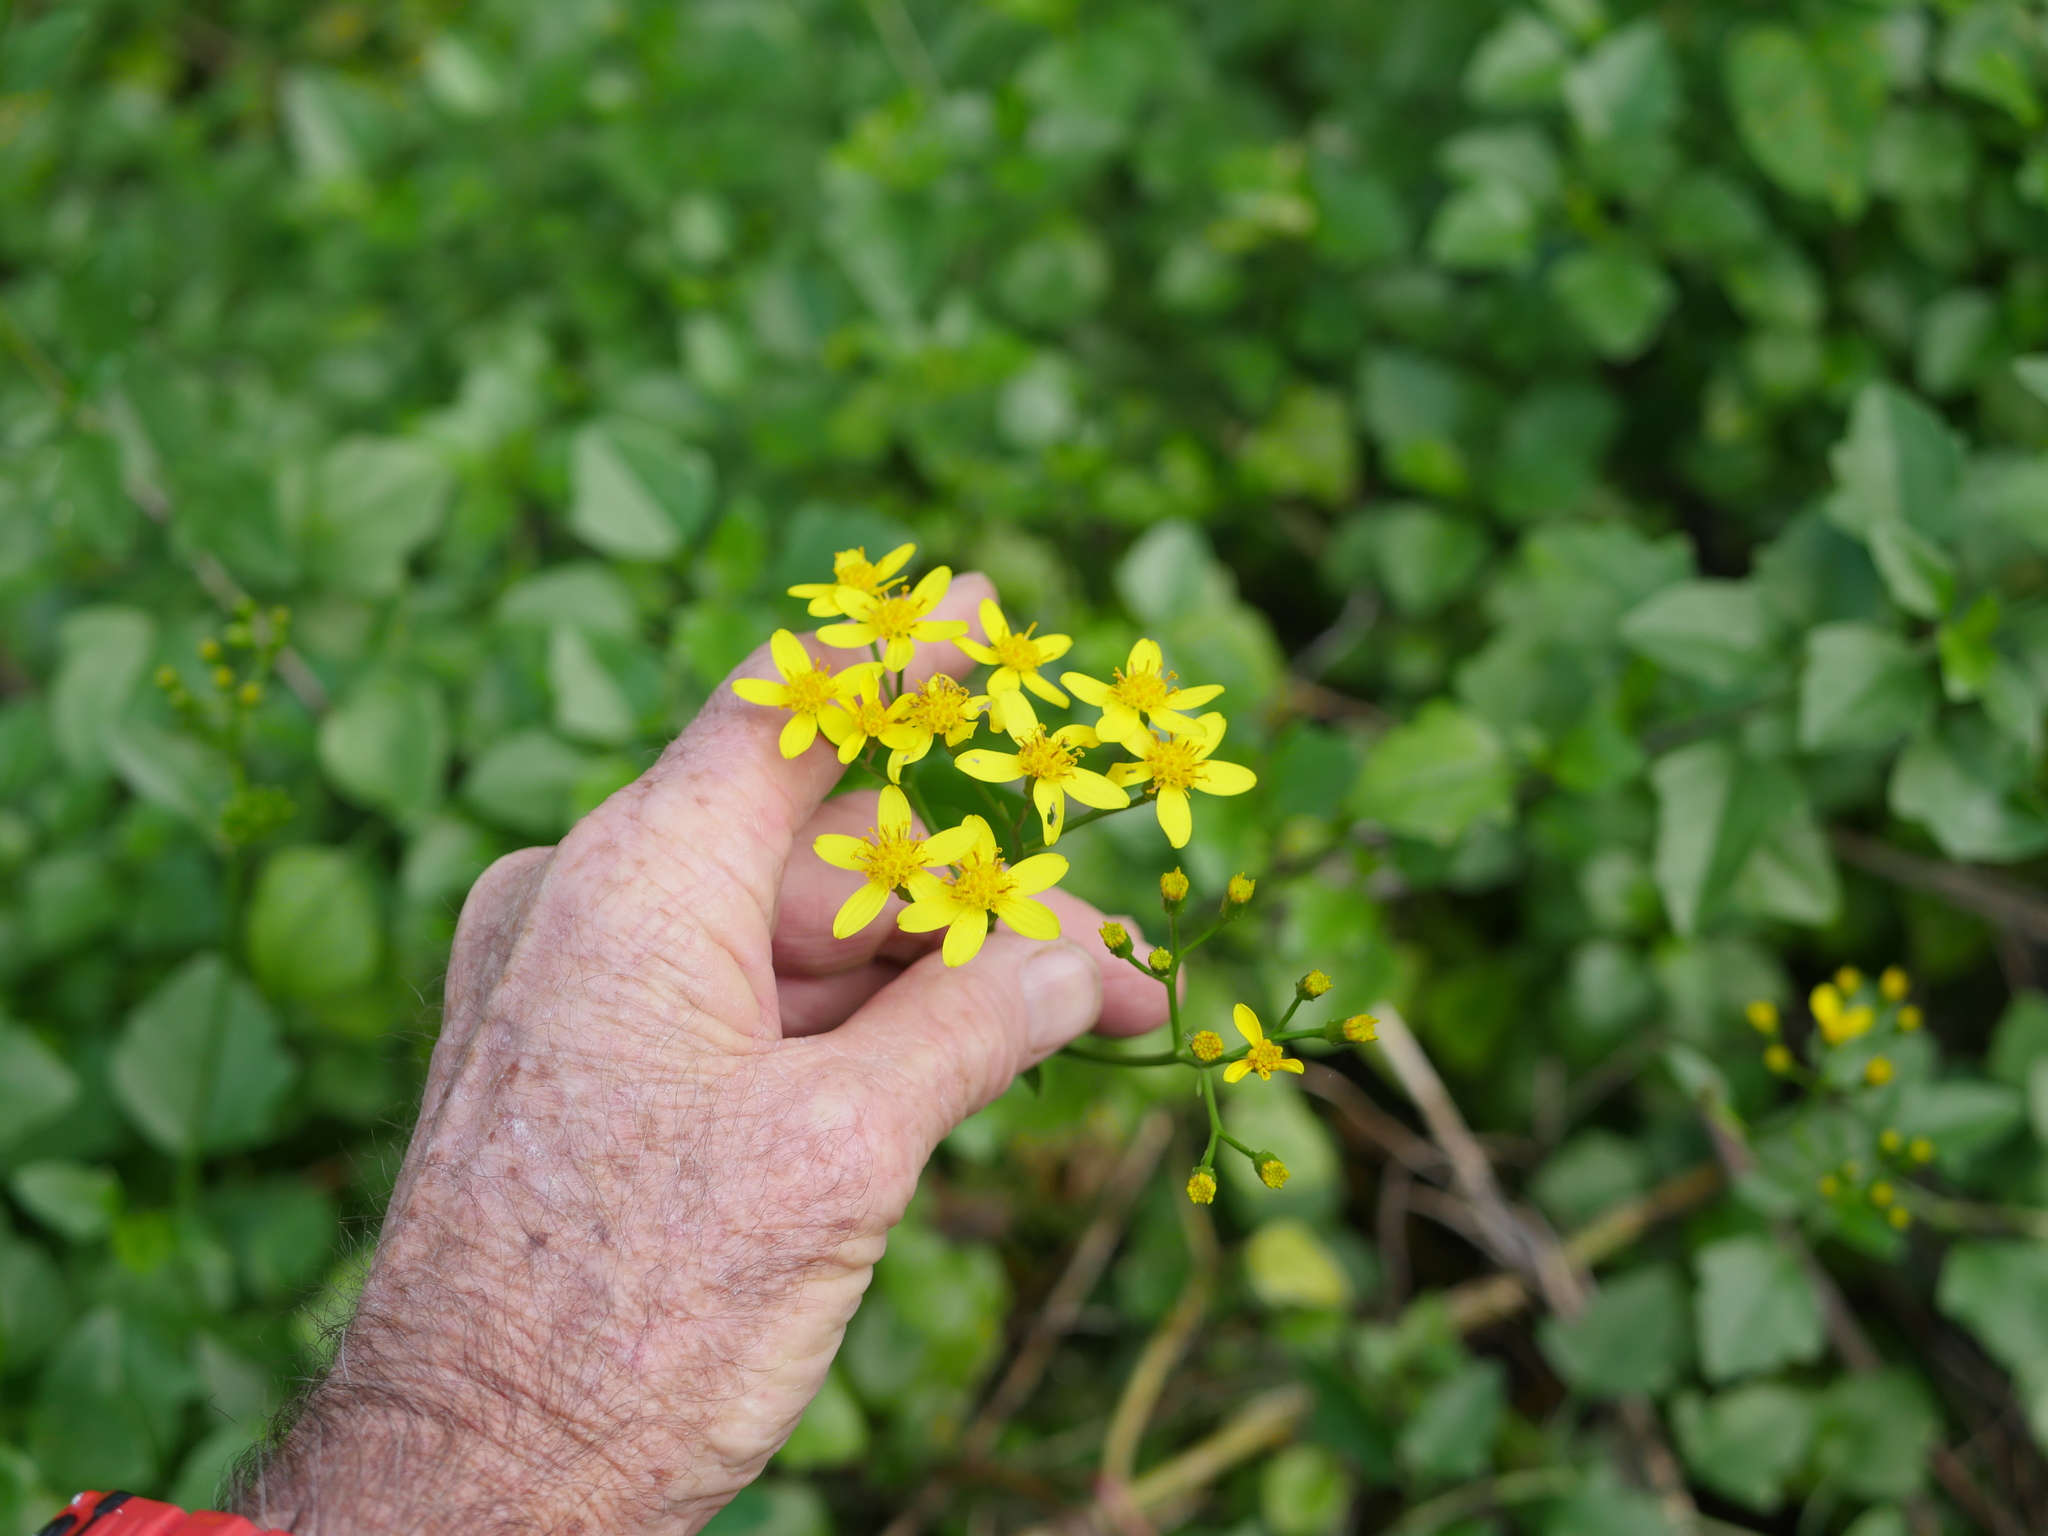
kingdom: Plantae
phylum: Tracheophyta
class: Magnoliopsida
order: Asterales
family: Asteraceae
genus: Senecio
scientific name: Senecio angulatus
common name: Climbing groundsel
